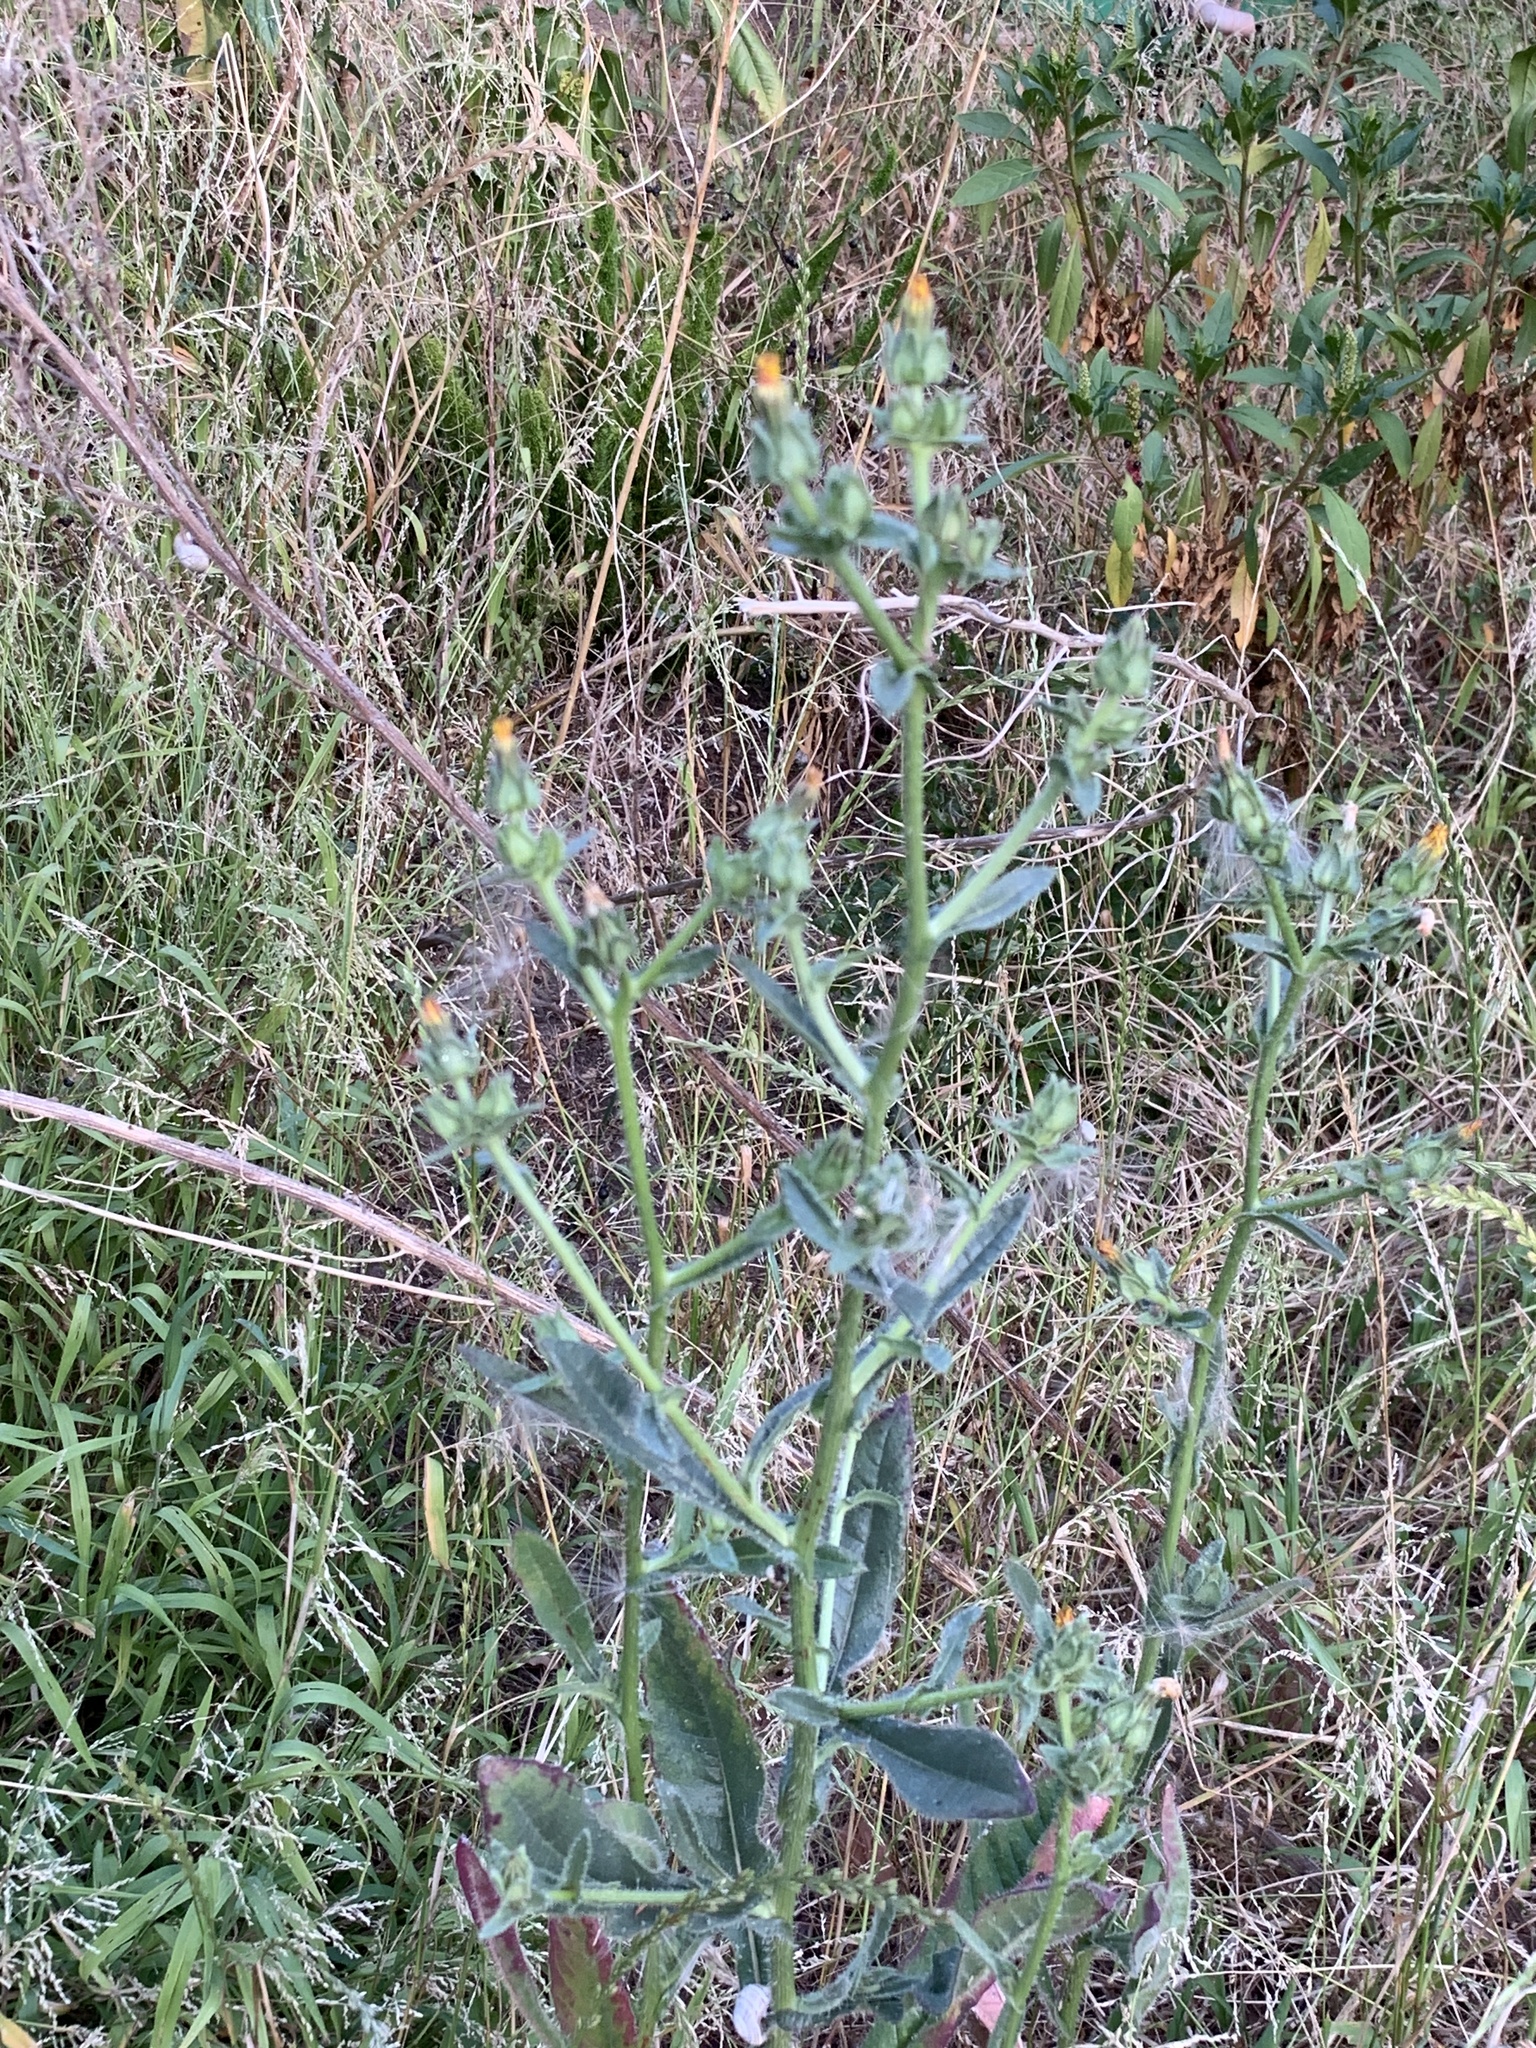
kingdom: Plantae
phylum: Tracheophyta
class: Magnoliopsida
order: Asterales
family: Asteraceae
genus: Helminthotheca
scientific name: Helminthotheca echioides
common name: Ox-tongue
